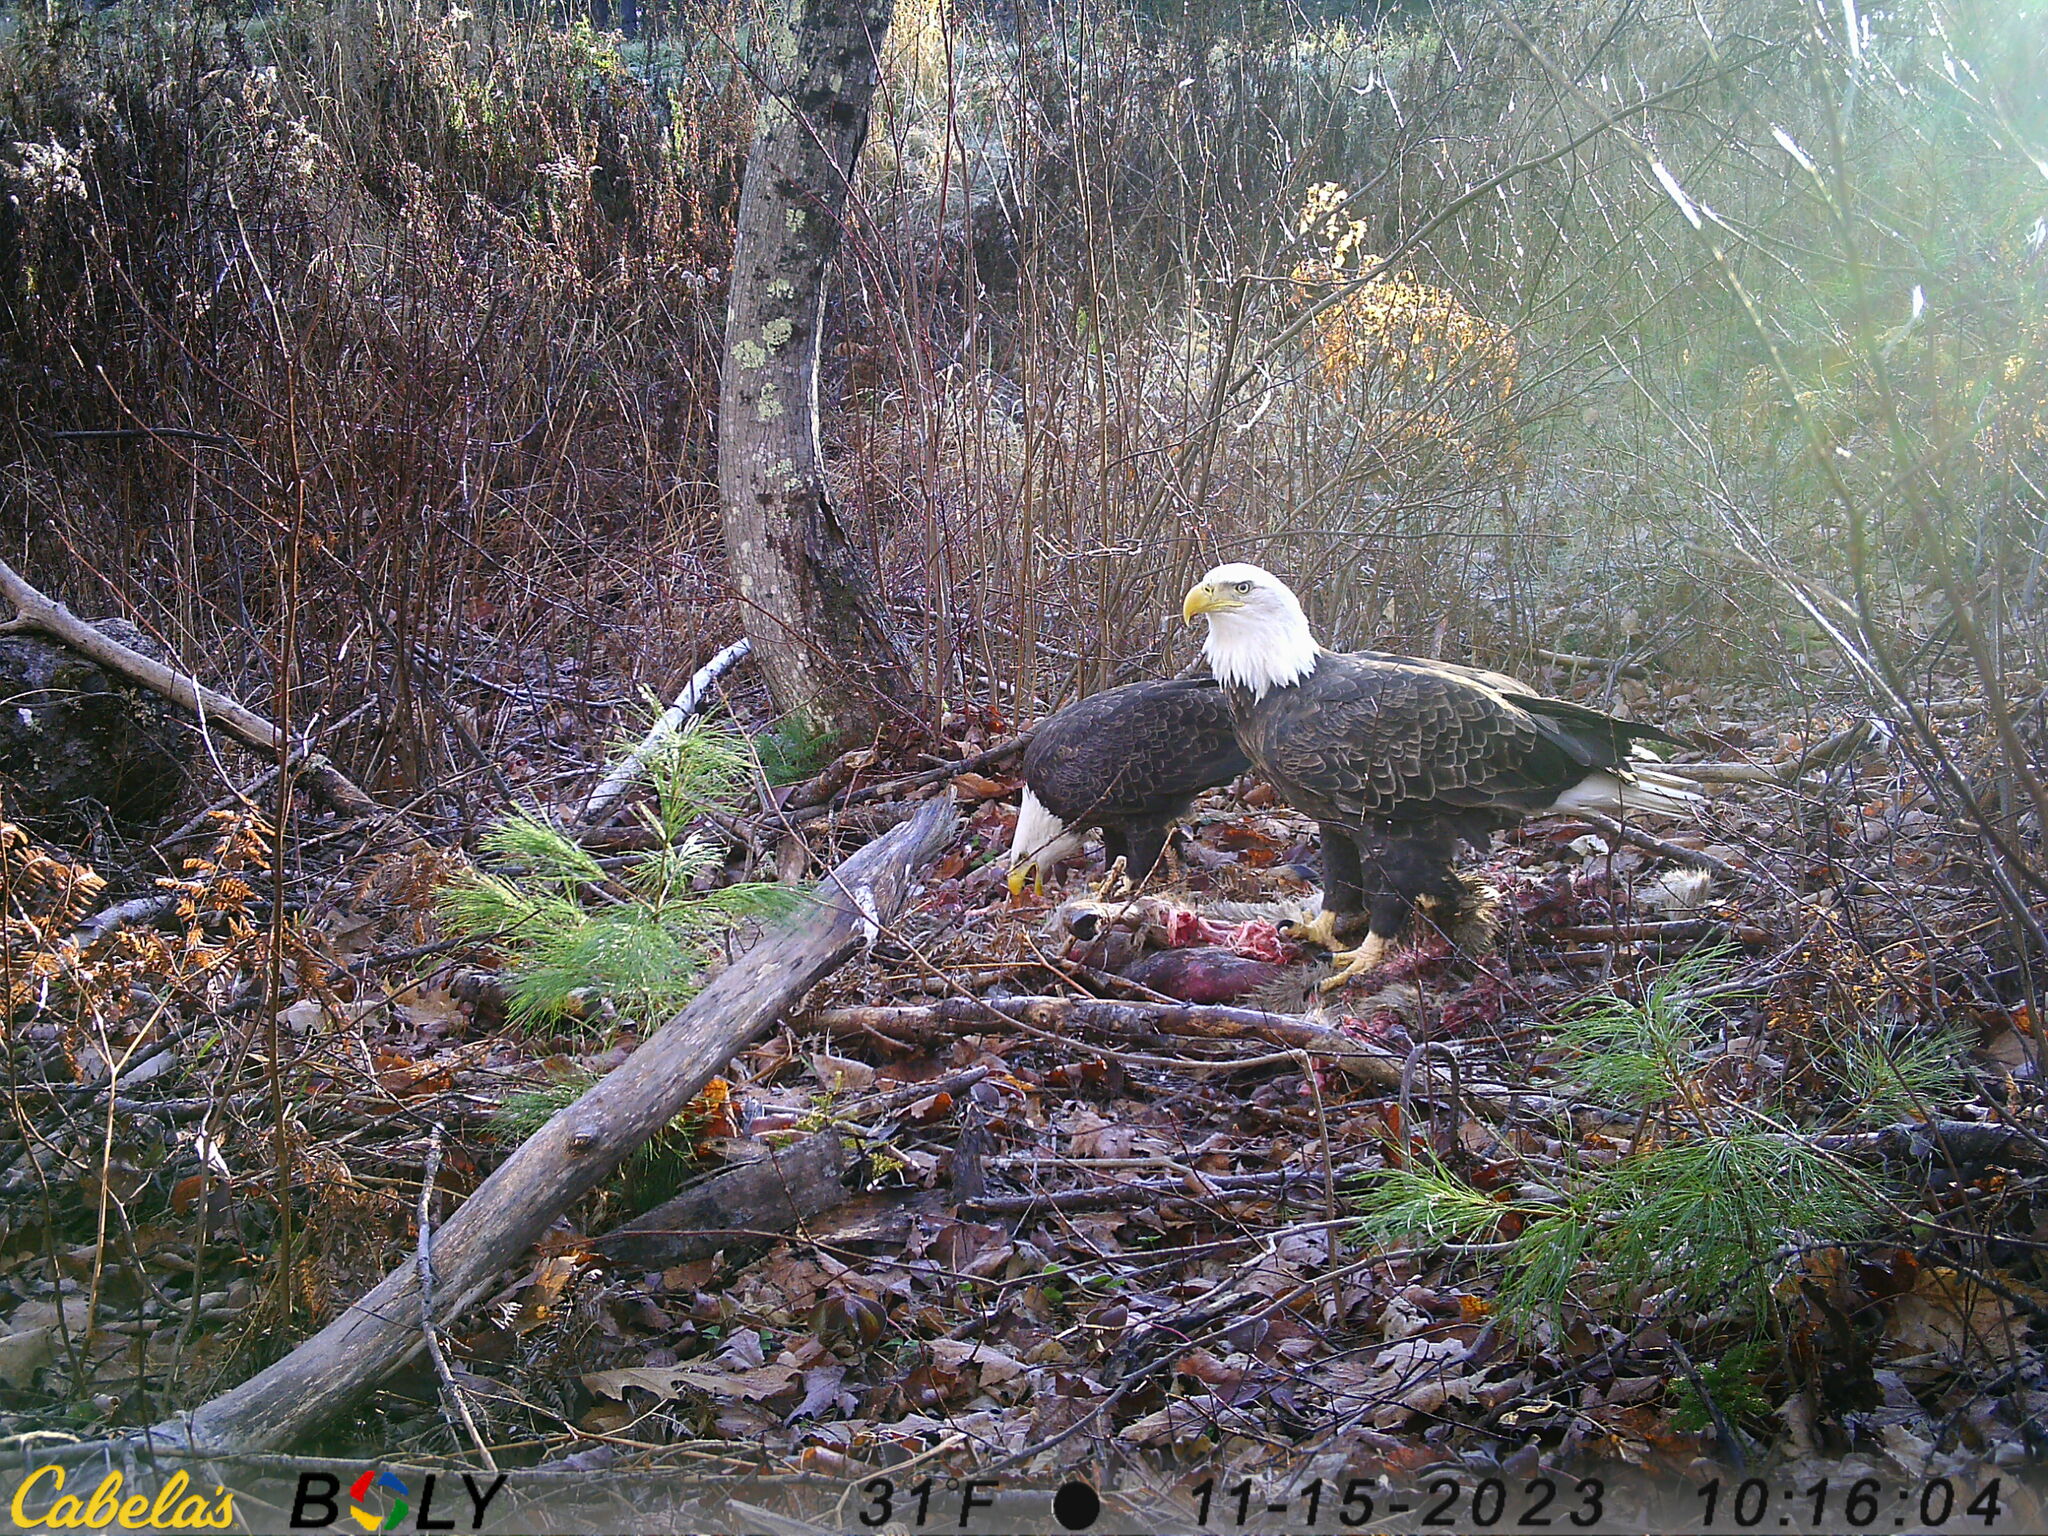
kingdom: Animalia
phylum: Chordata
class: Aves
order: Accipitriformes
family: Accipitridae
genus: Haliaeetus
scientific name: Haliaeetus leucocephalus
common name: Bald eagle
